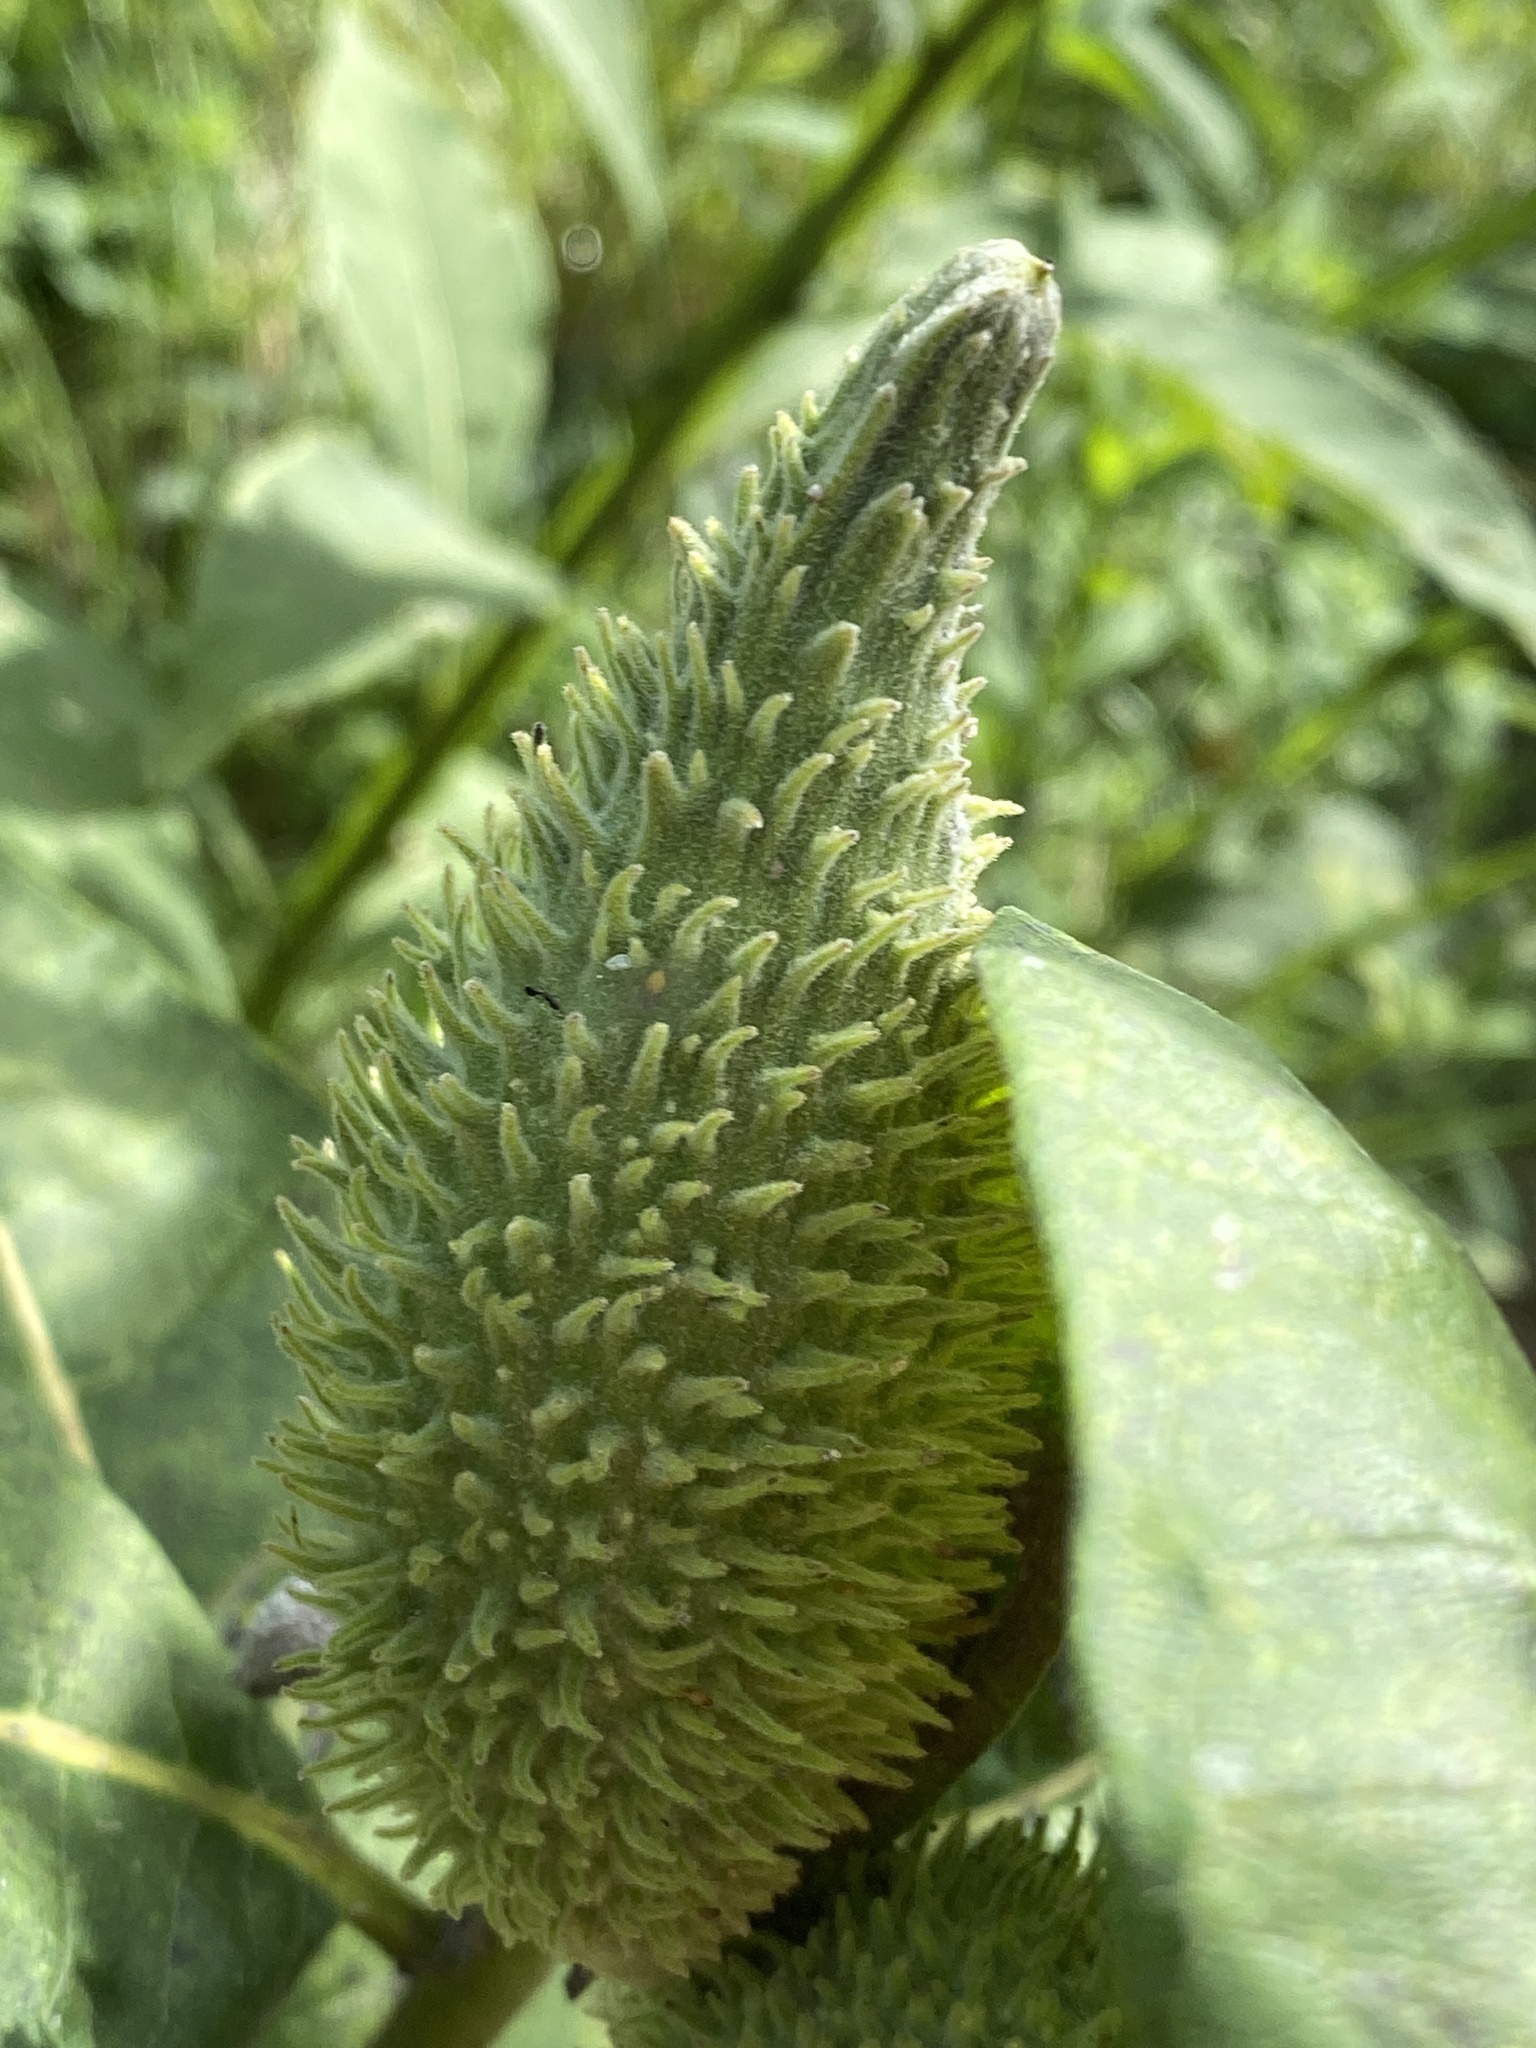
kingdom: Plantae
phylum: Tracheophyta
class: Magnoliopsida
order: Gentianales
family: Apocynaceae
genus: Asclepias
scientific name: Asclepias syriaca
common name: Common milkweed
